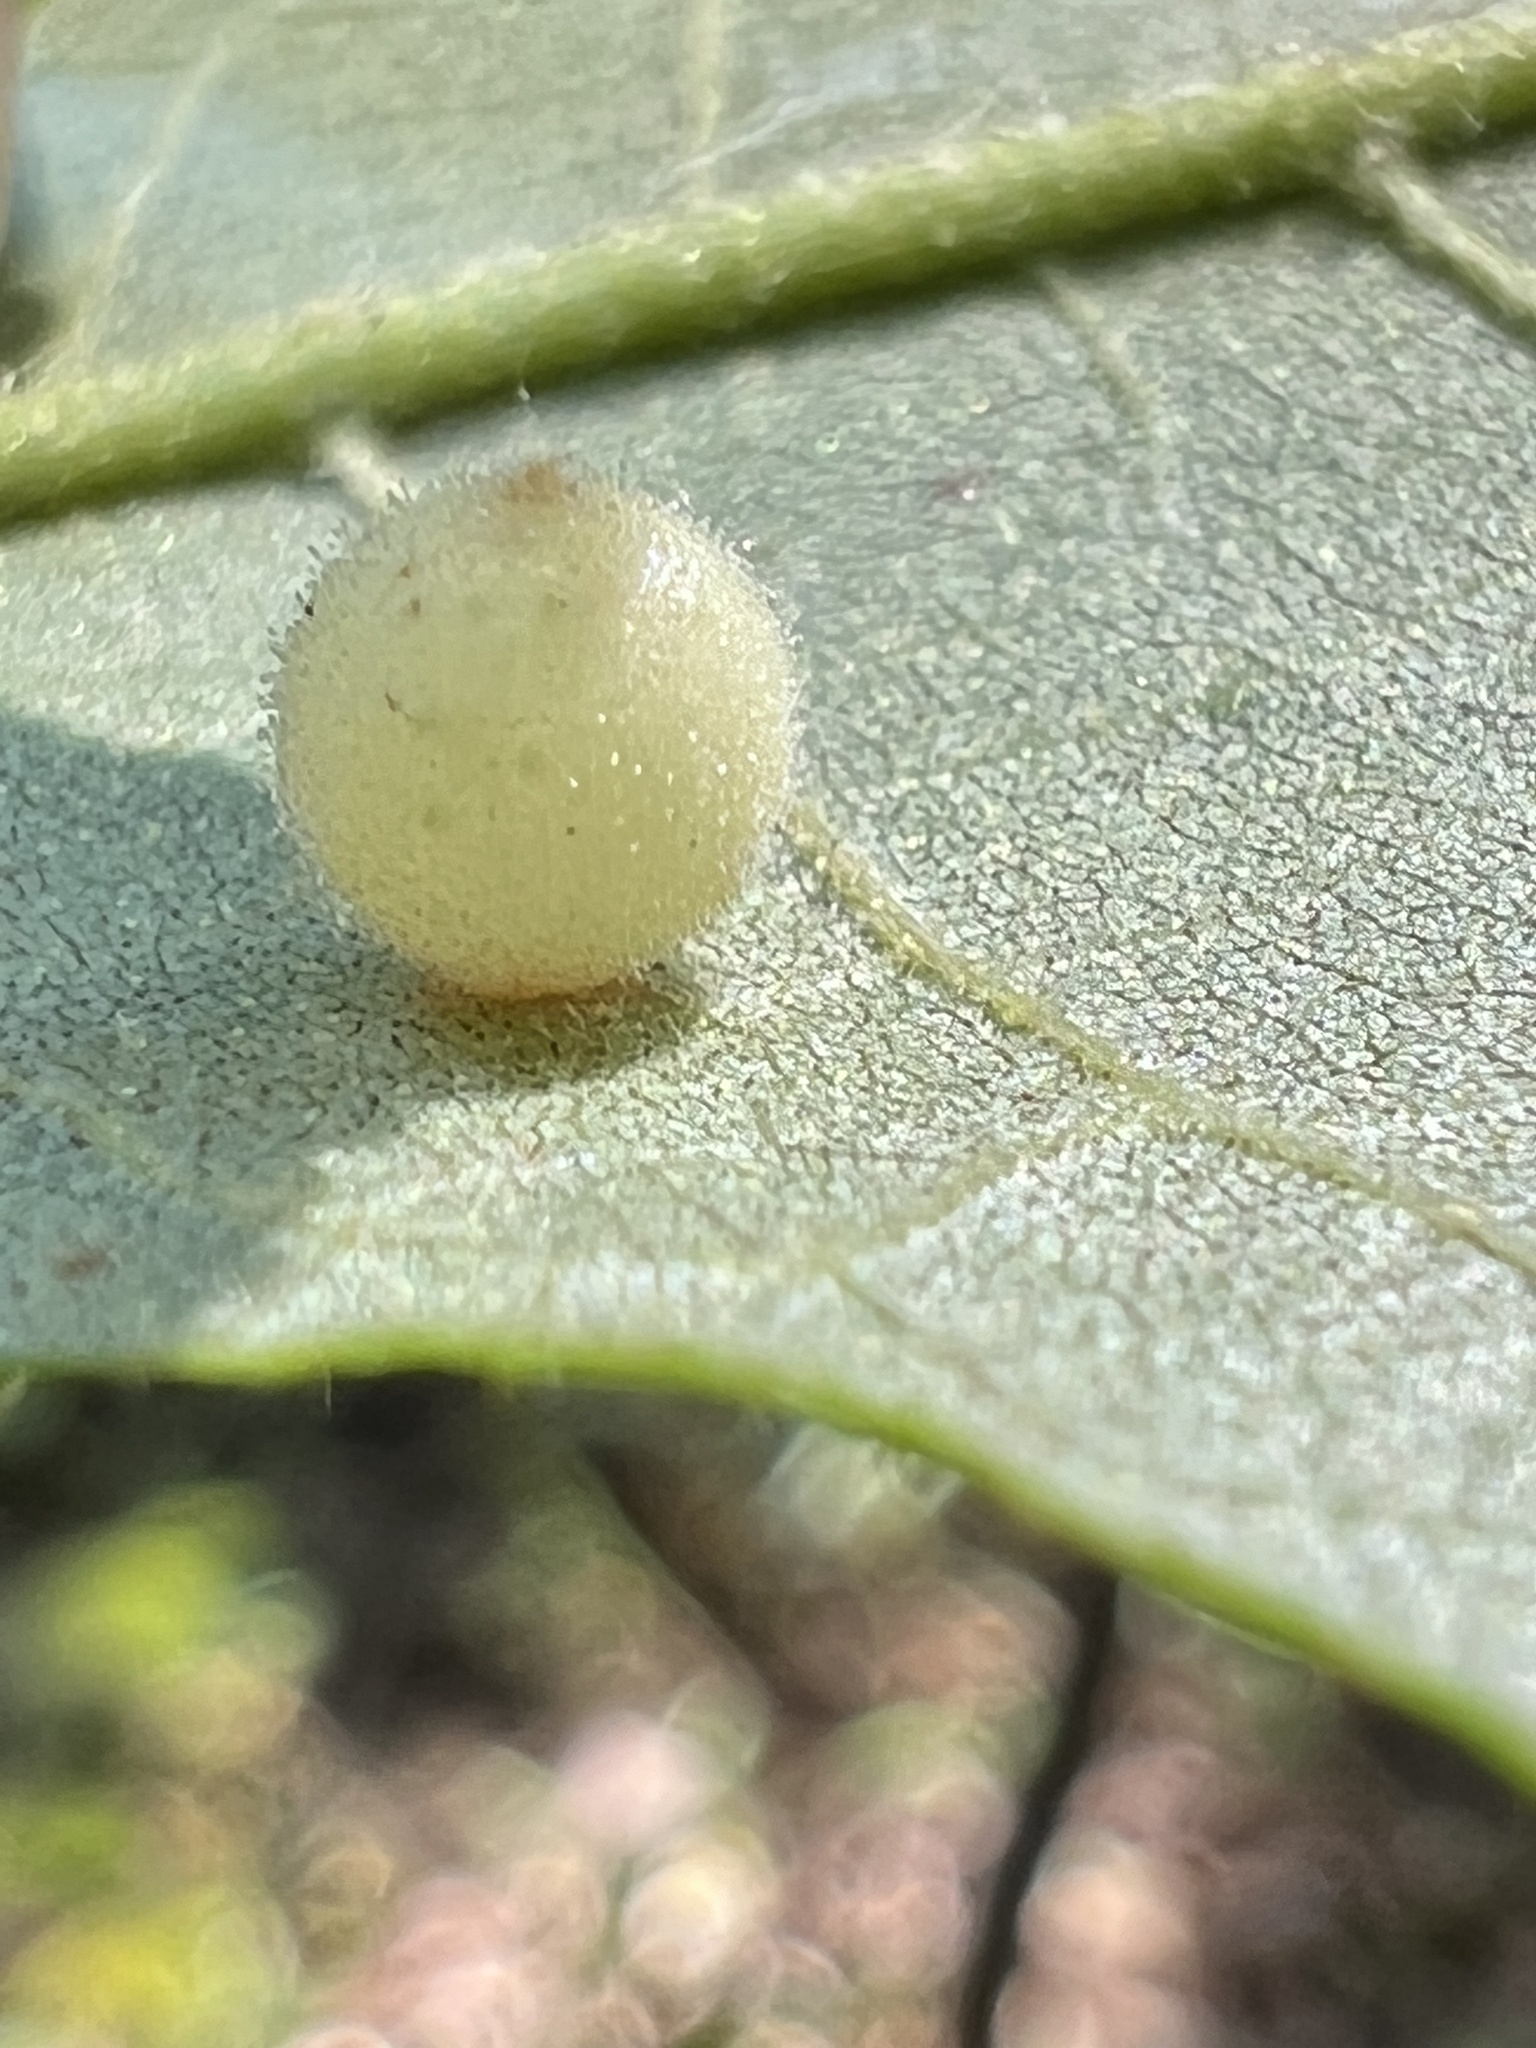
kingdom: Animalia
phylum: Arthropoda
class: Insecta
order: Diptera
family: Cecidomyiidae
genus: Caryomyia
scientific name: Caryomyia tuberidolium
